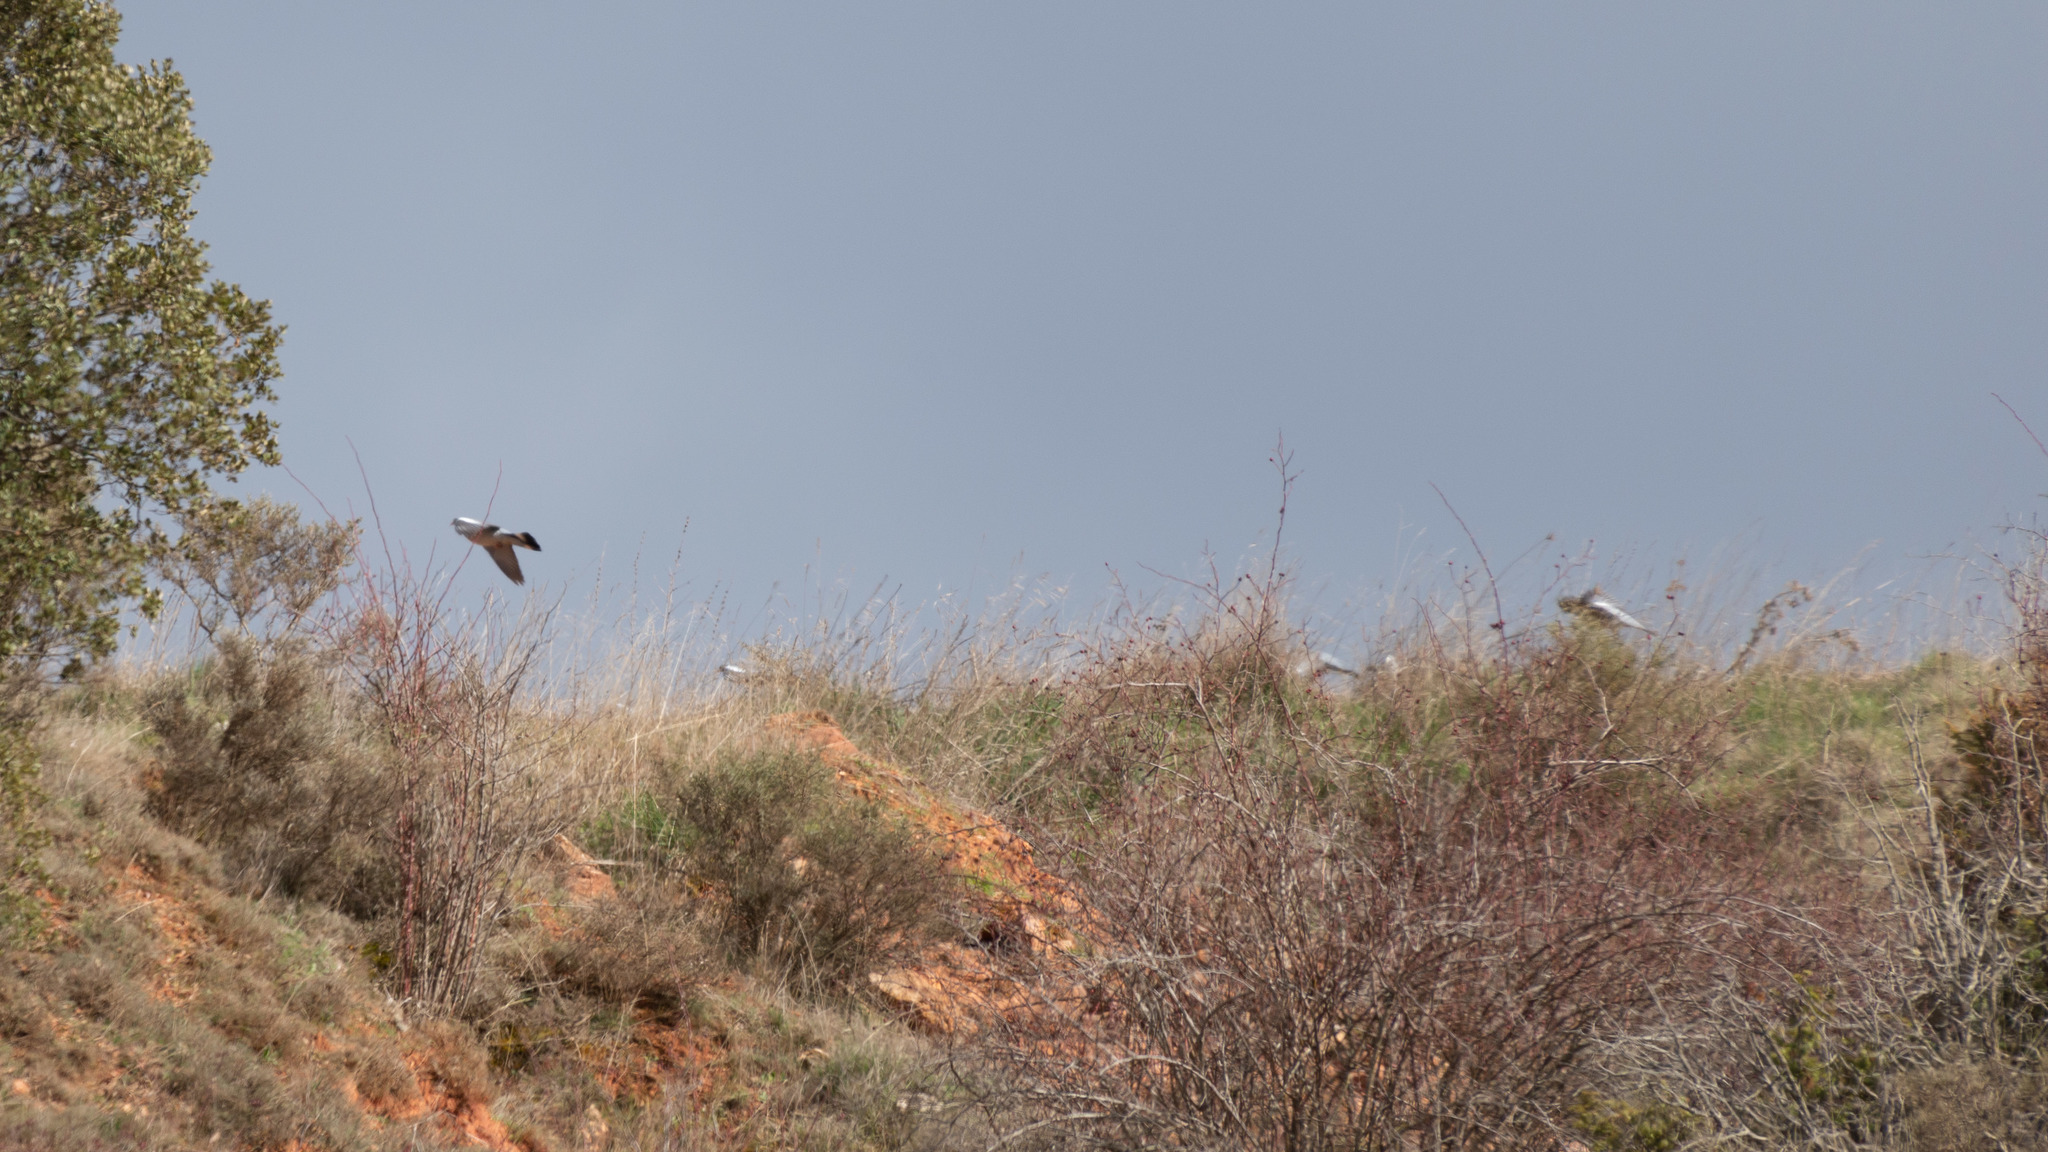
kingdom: Animalia
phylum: Chordata
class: Aves
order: Columbiformes
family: Columbidae
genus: Columba
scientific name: Columba palumbus
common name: Common wood pigeon
